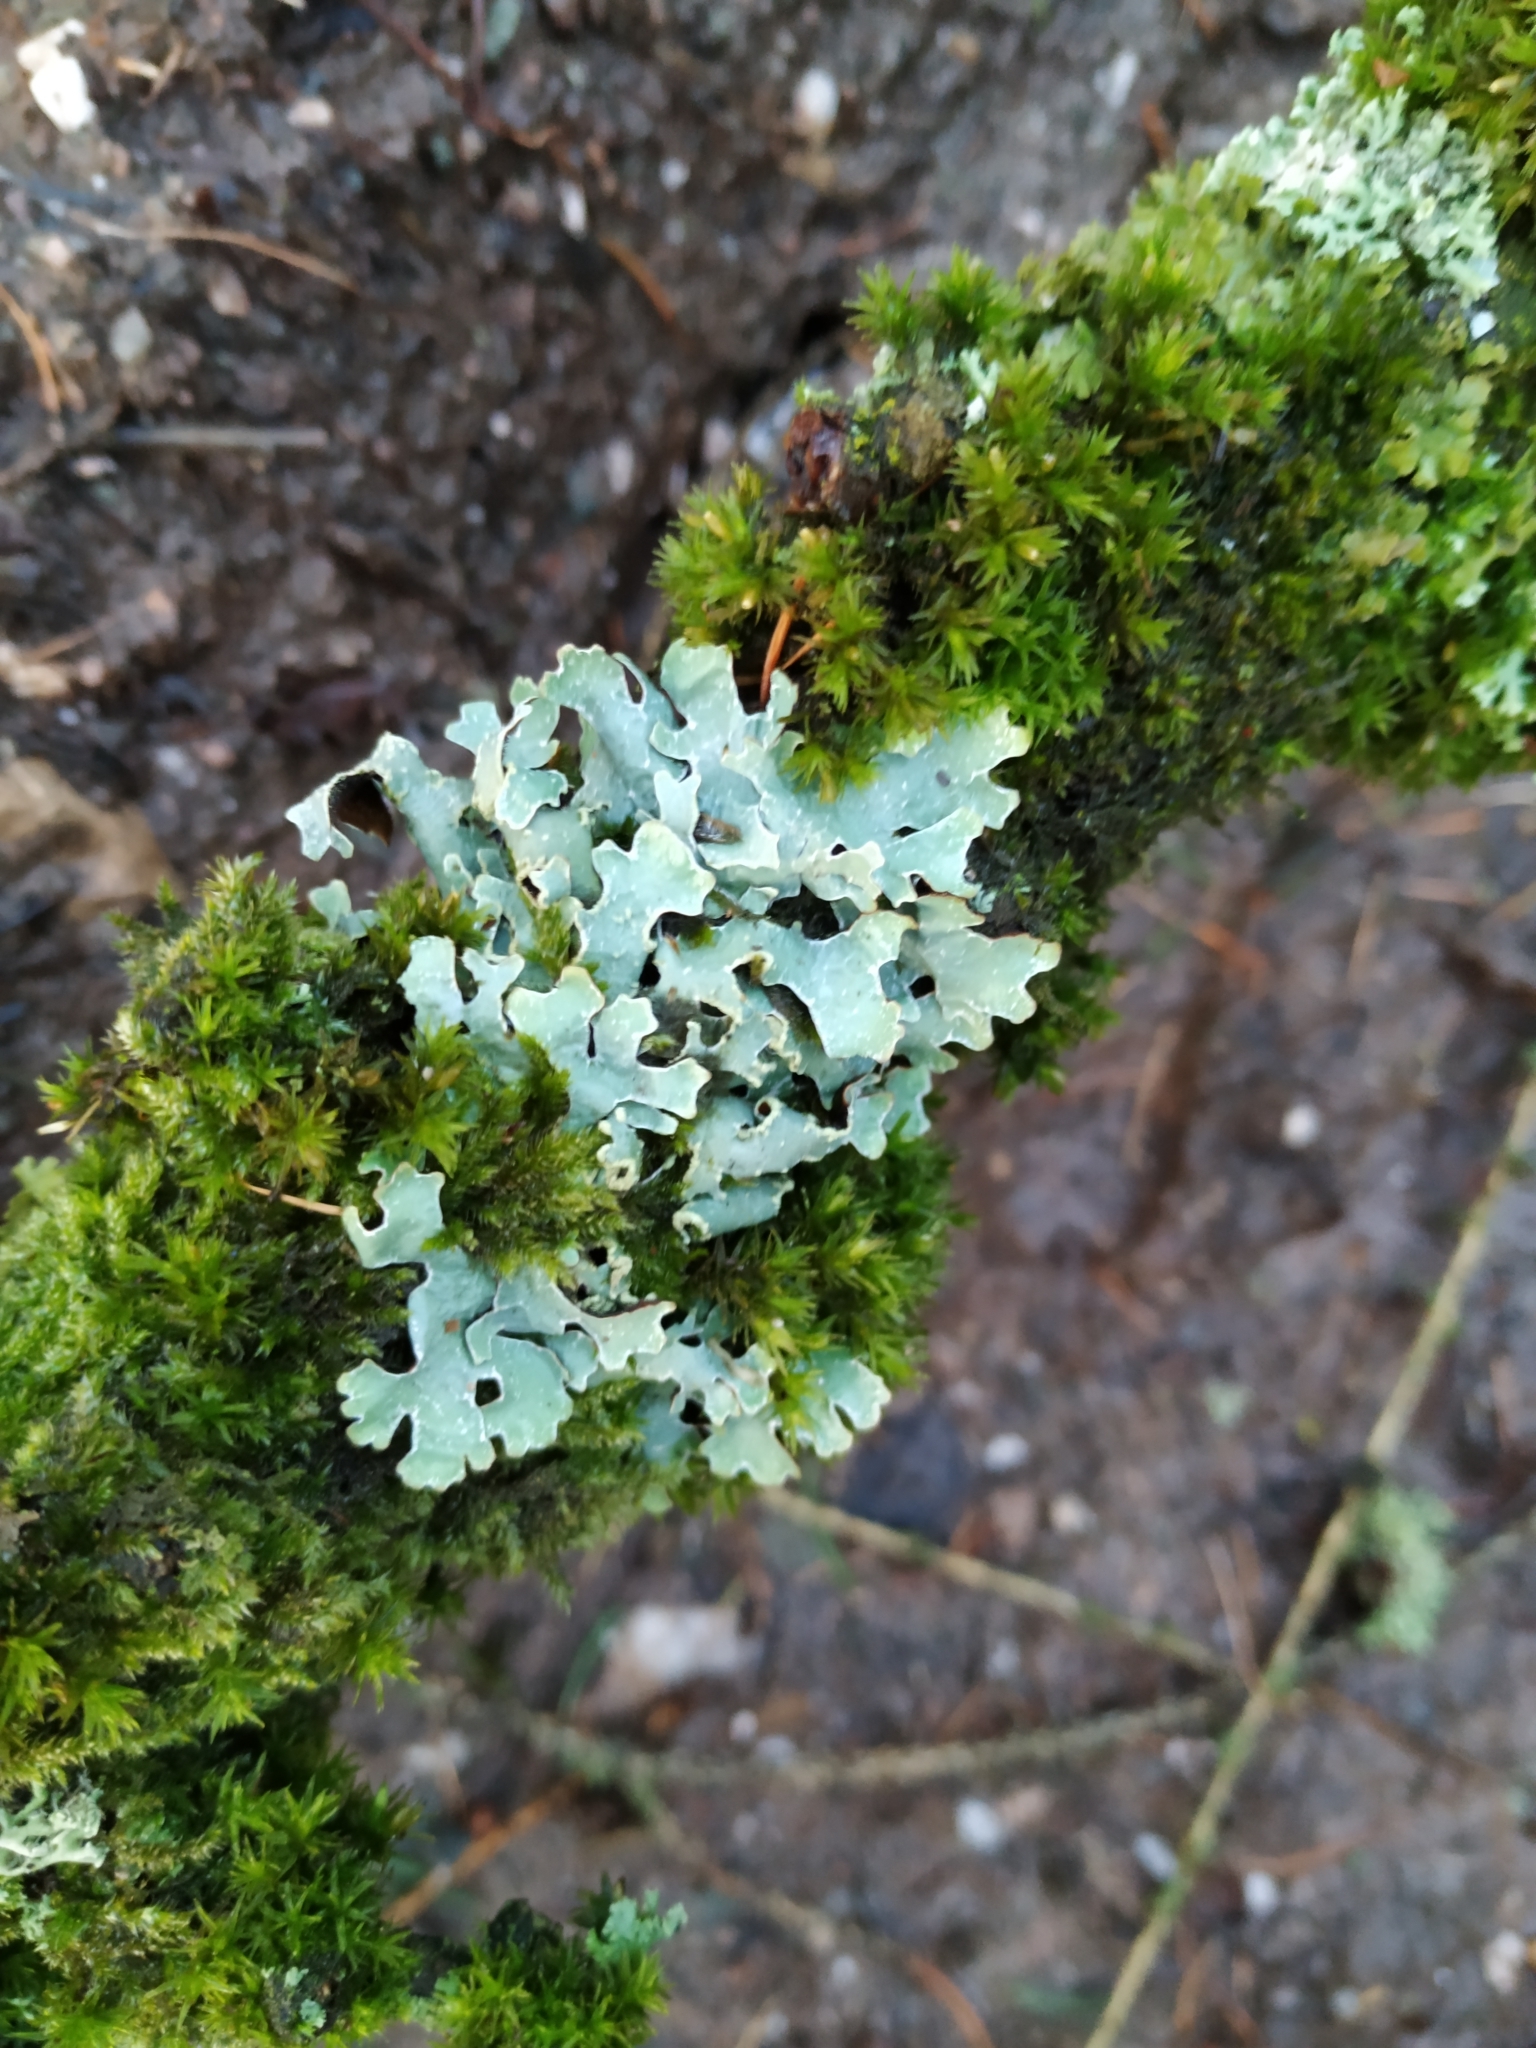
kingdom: Fungi
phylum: Ascomycota
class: Lecanoromycetes
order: Lecanorales
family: Parmeliaceae
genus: Parmelia
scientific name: Parmelia sulcata
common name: Netted shield lichen
